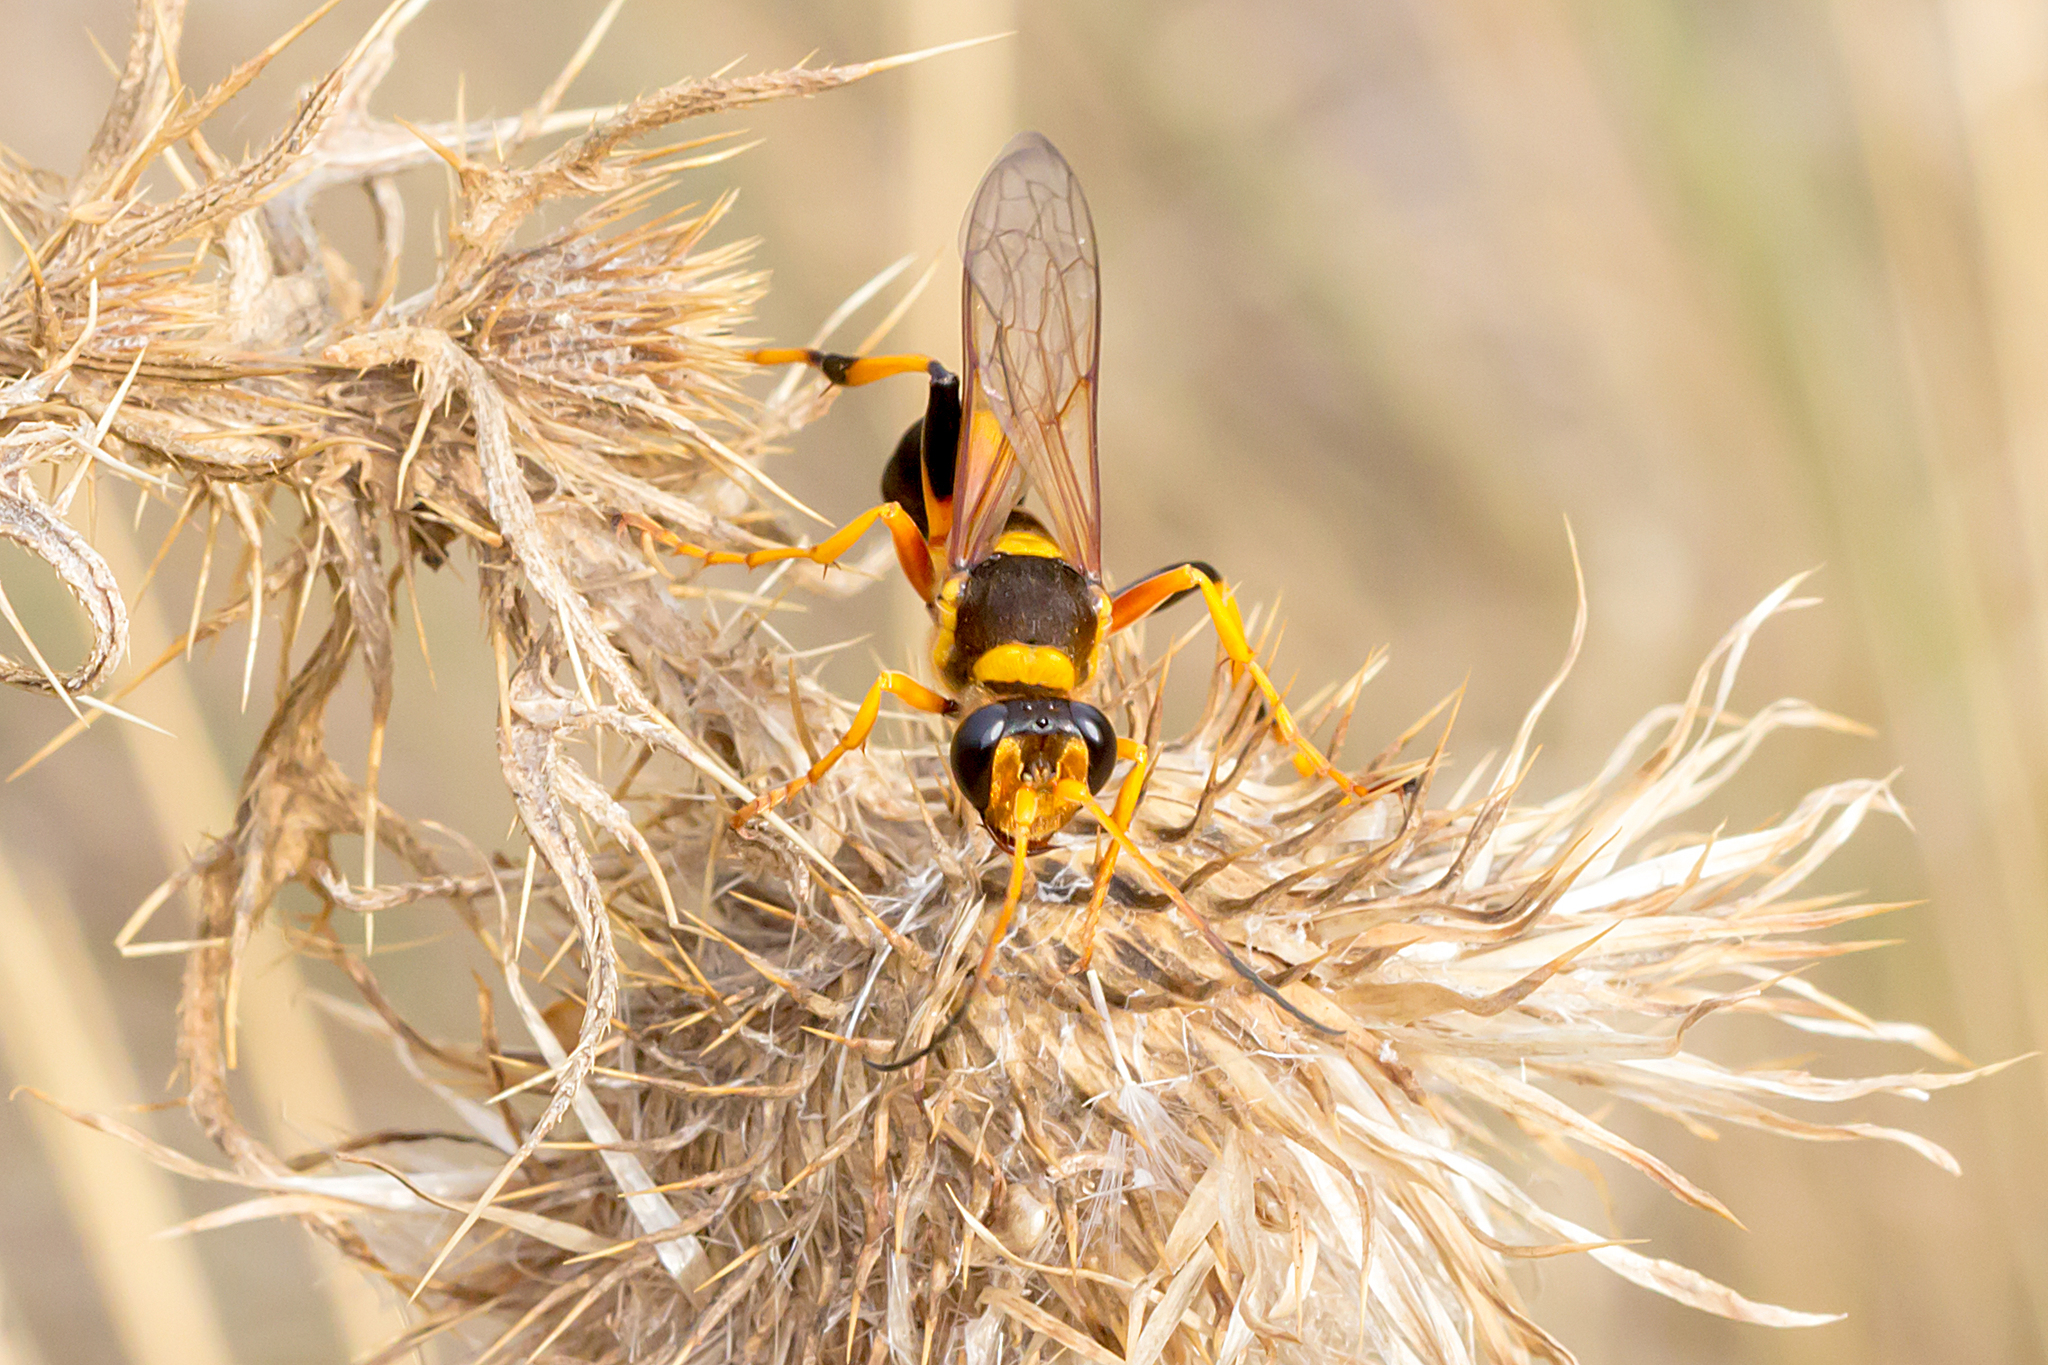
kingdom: Animalia
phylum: Arthropoda
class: Insecta
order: Hymenoptera
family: Sphecidae
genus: Sceliphron
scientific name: Sceliphron laetum
